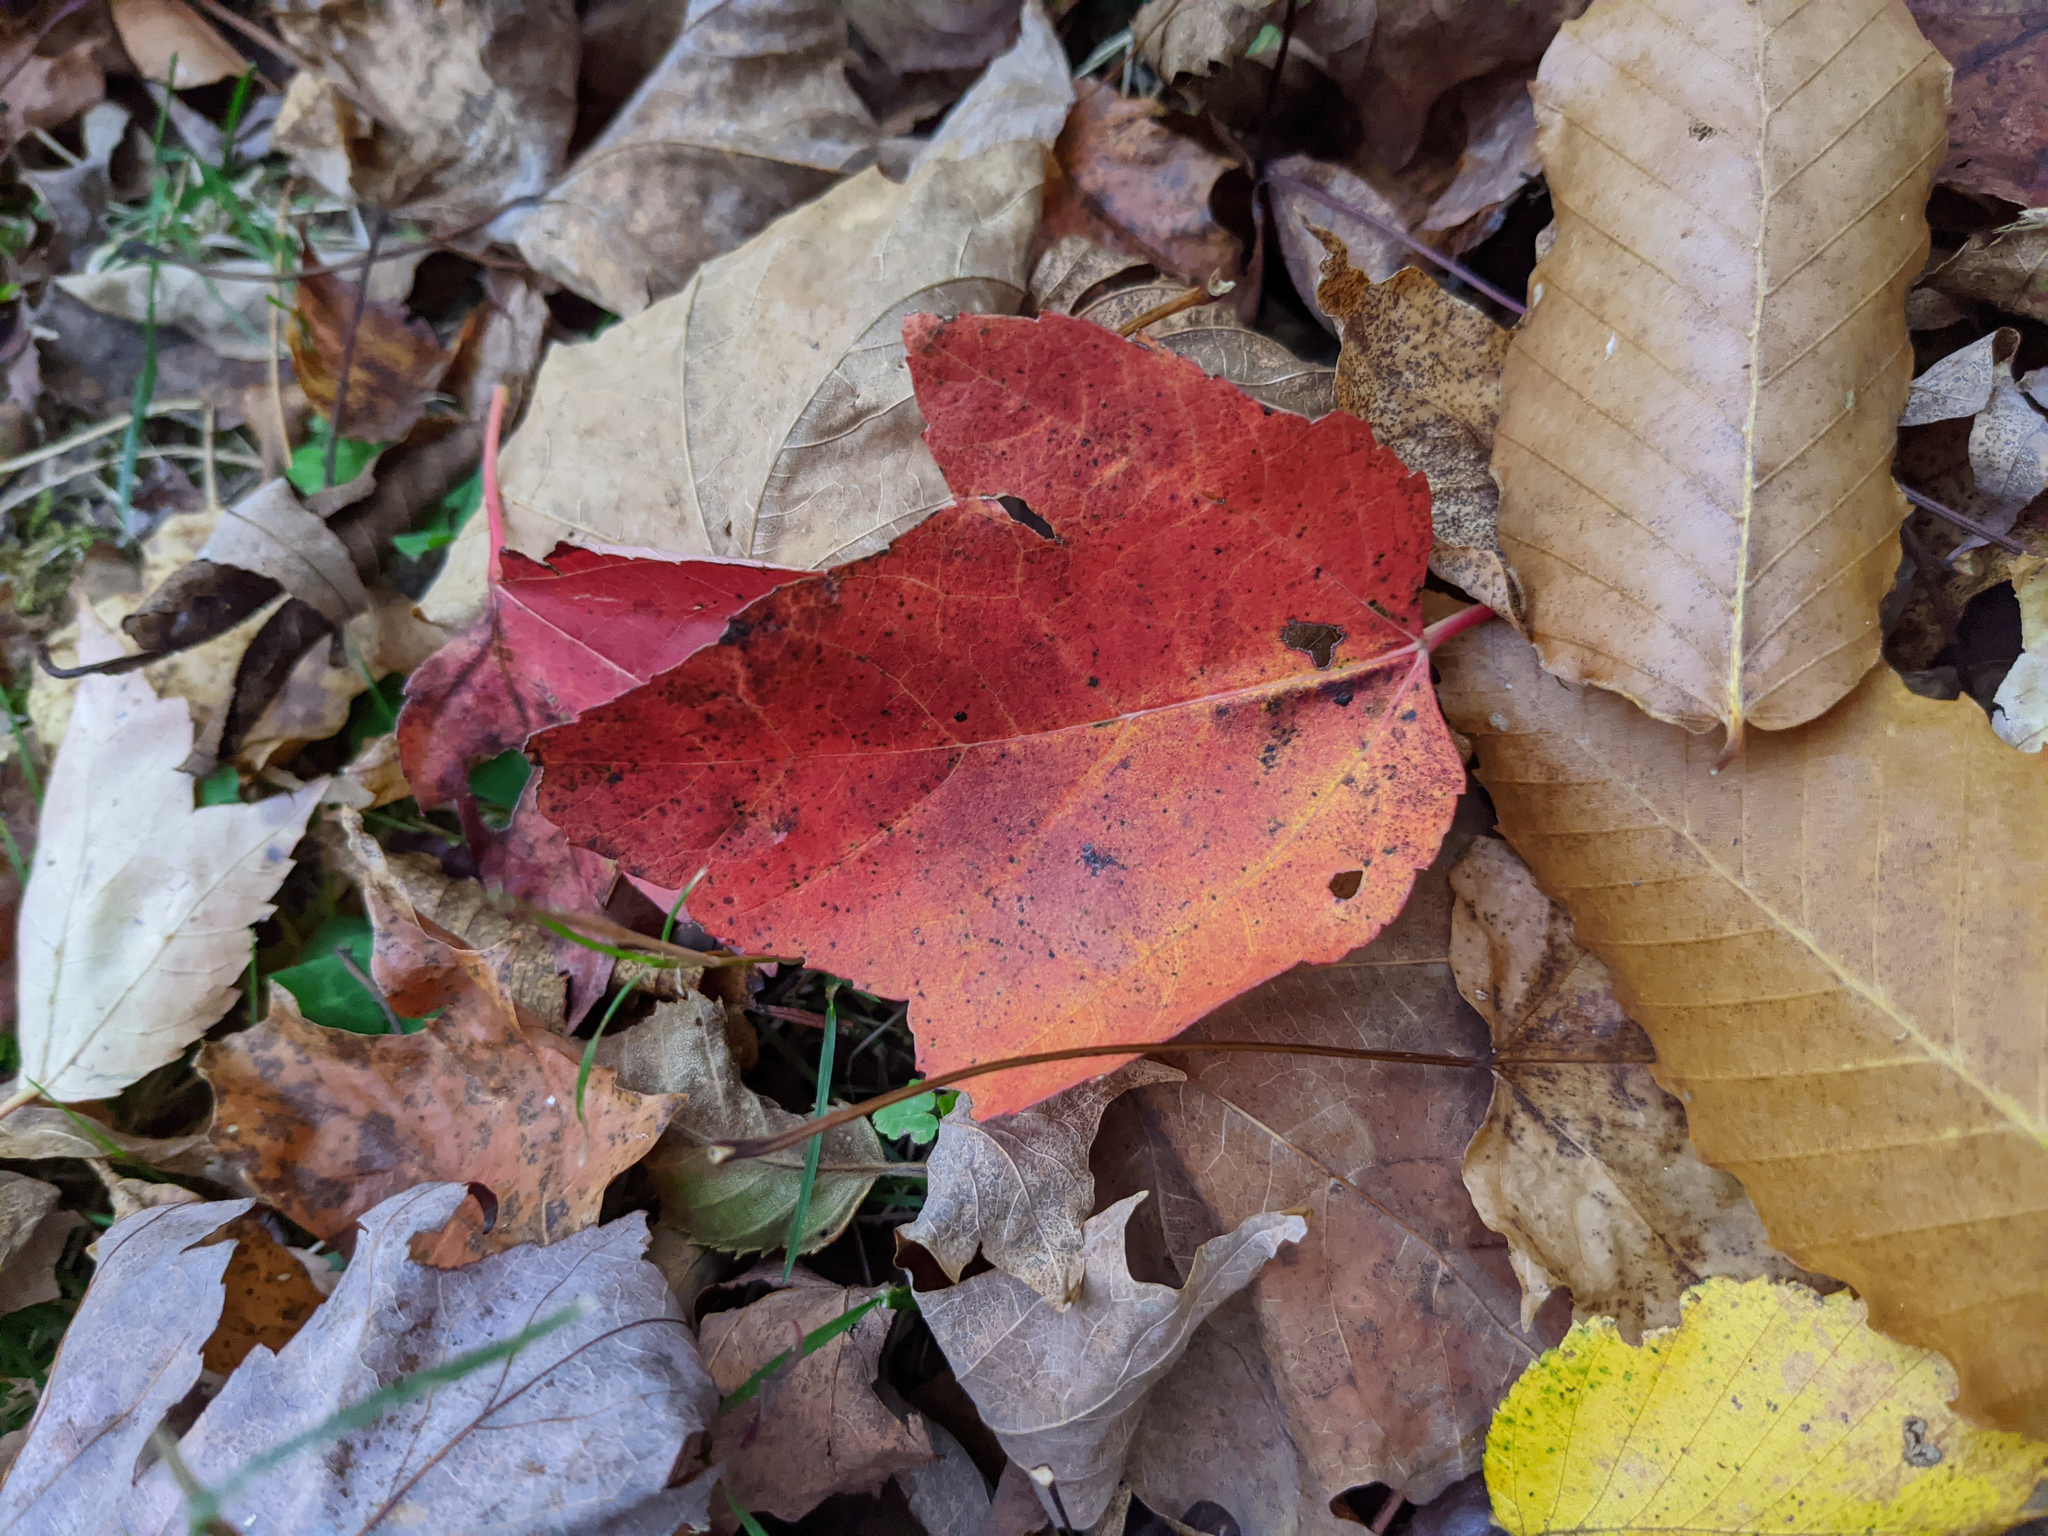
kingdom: Plantae
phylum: Tracheophyta
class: Magnoliopsida
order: Sapindales
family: Sapindaceae
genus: Acer
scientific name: Acer rubrum
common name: Red maple
